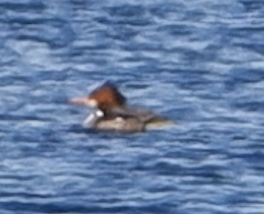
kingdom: Animalia
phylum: Chordata
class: Aves
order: Anseriformes
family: Anatidae
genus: Mergus
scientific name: Mergus merganser
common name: Common merganser
